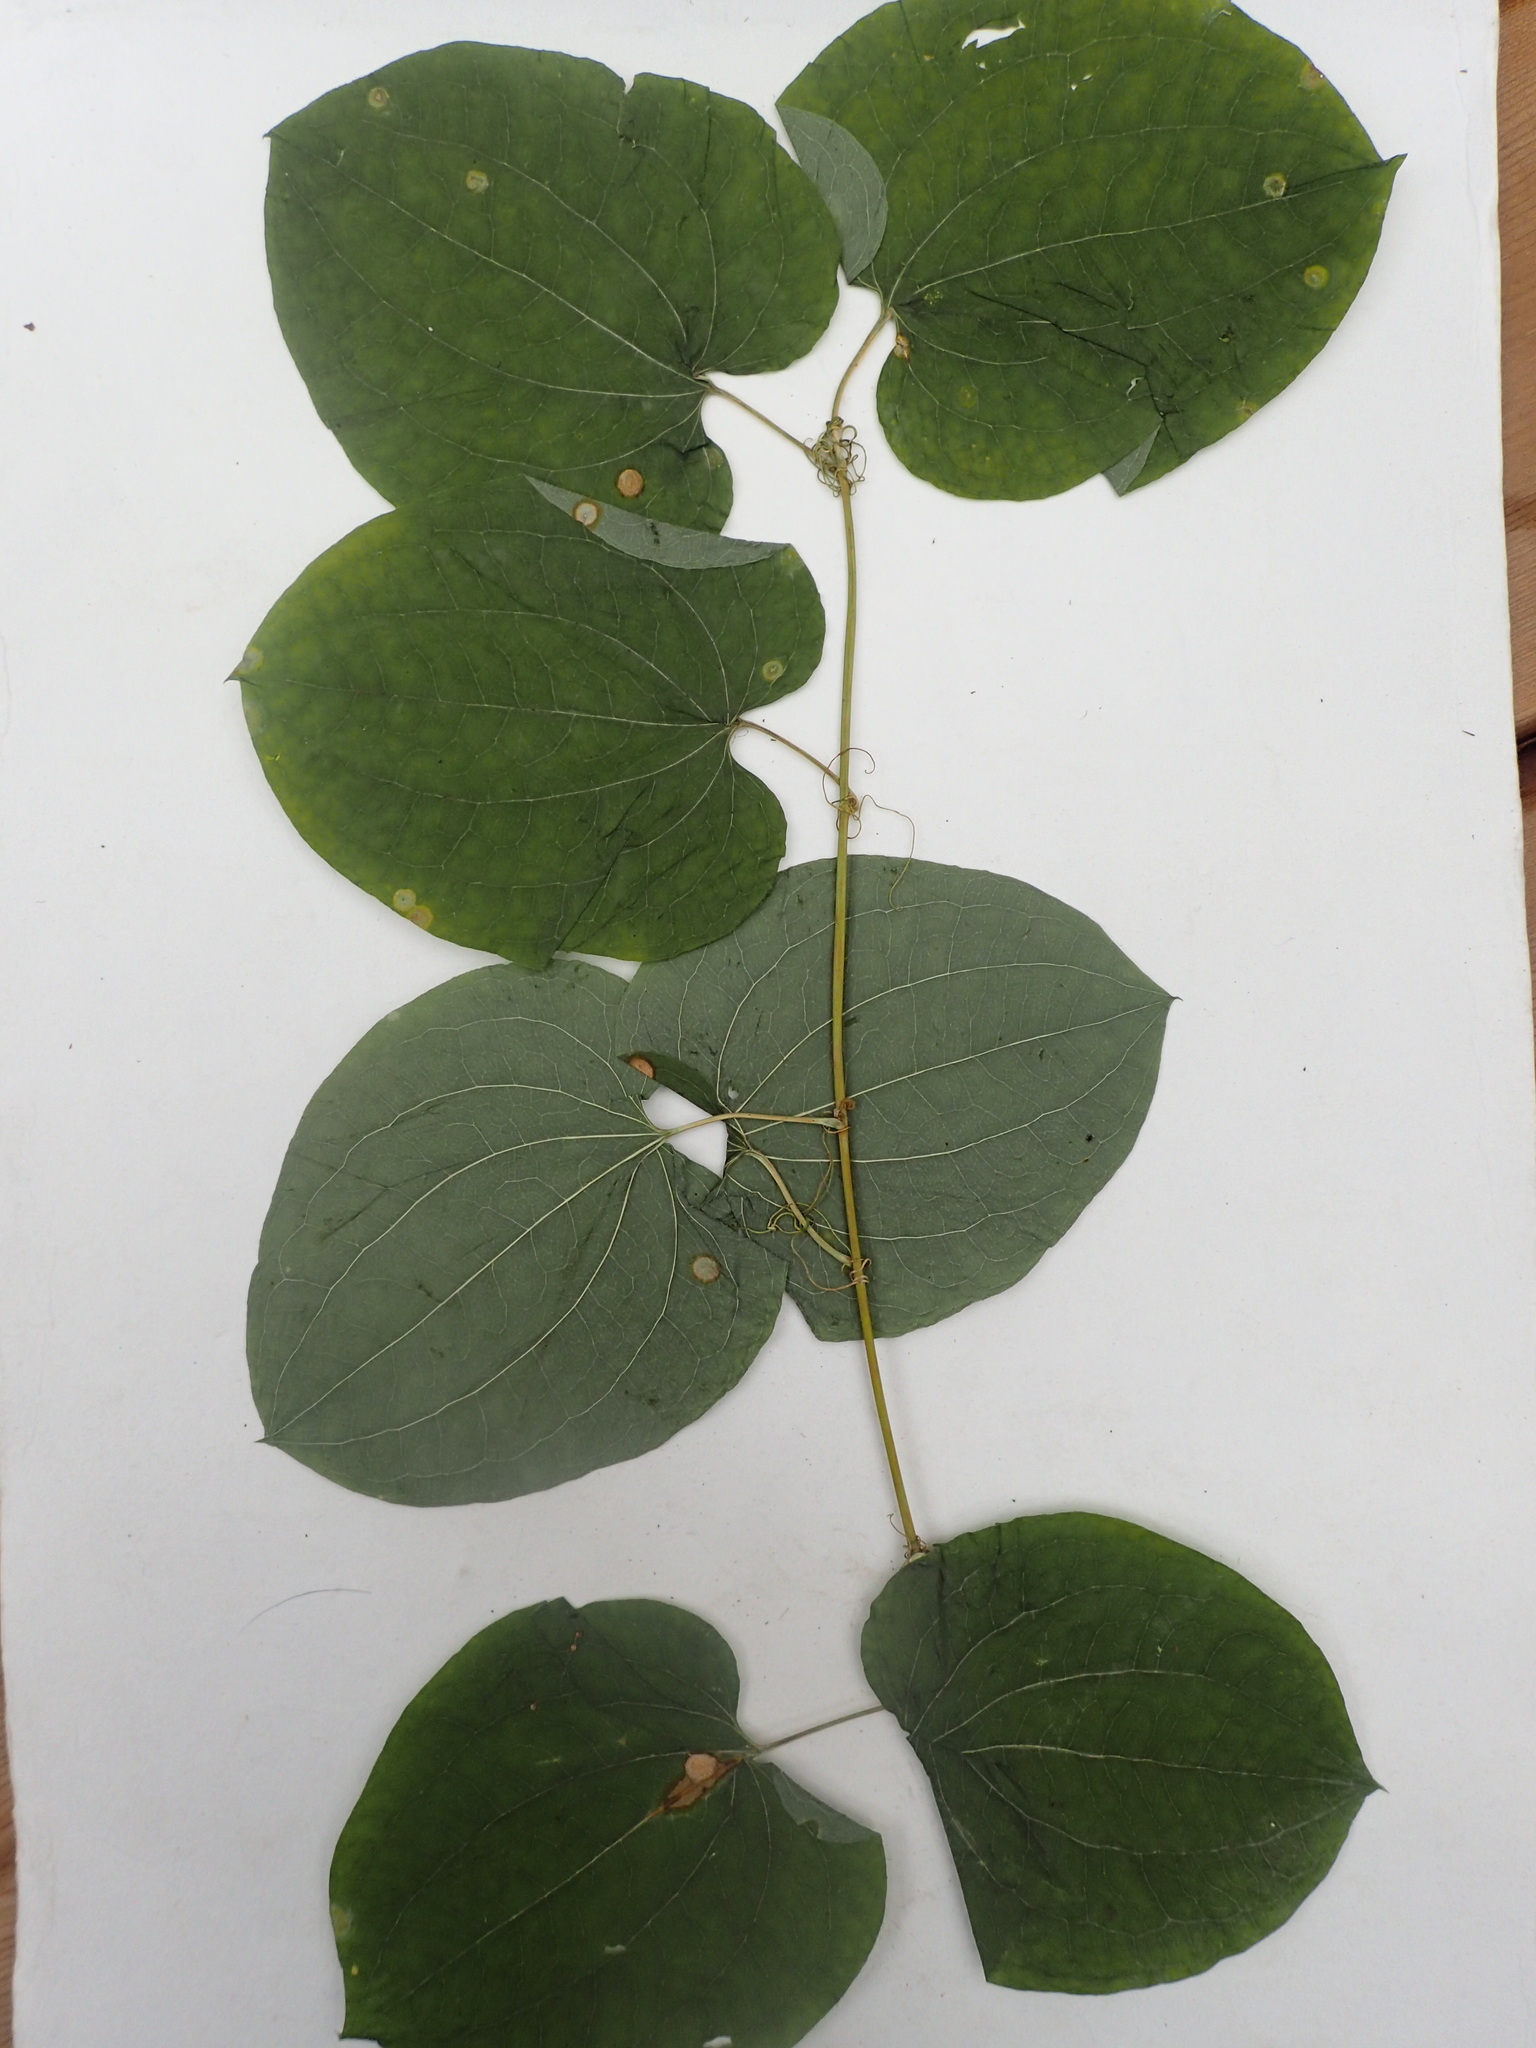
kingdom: Plantae
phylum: Tracheophyta
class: Liliopsida
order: Liliales
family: Smilacaceae
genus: Smilax
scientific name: Smilax lasioneura
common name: Blue ridge carrionflower
